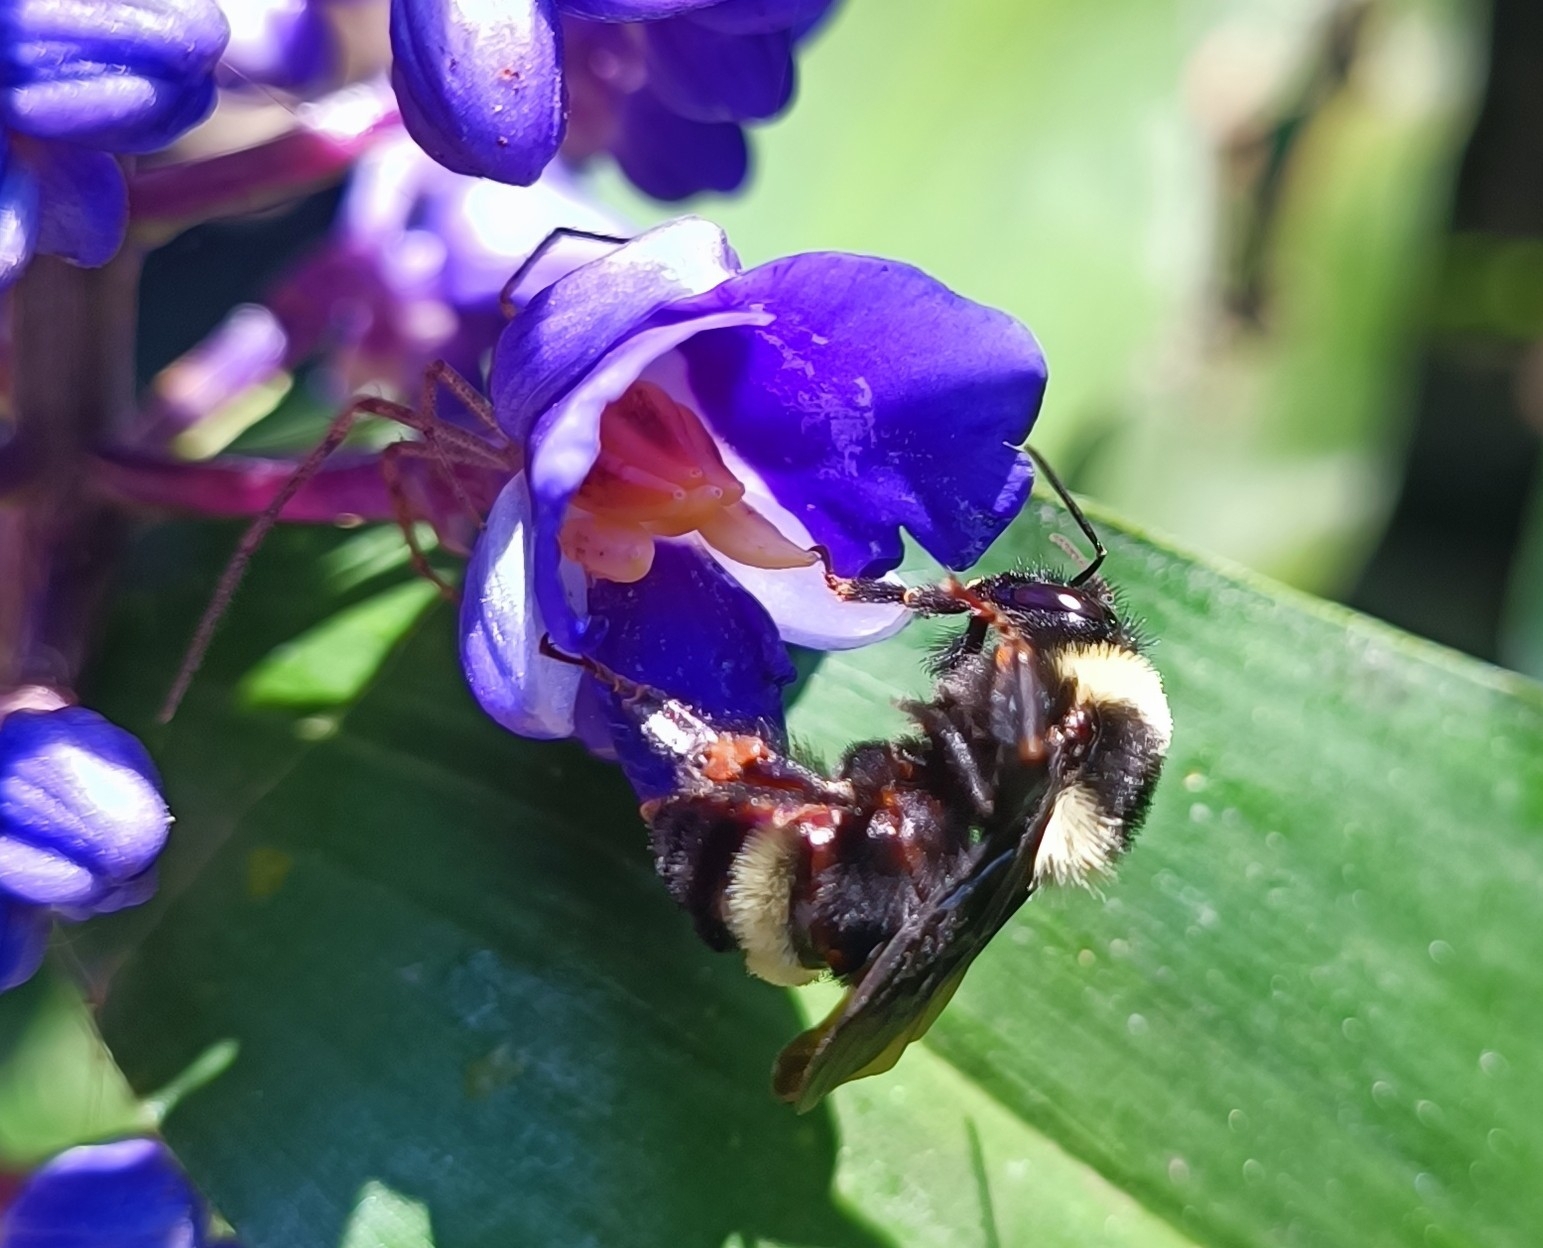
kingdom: Animalia
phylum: Arthropoda
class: Insecta
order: Hymenoptera
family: Apidae
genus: Bombus
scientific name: Bombus medius
